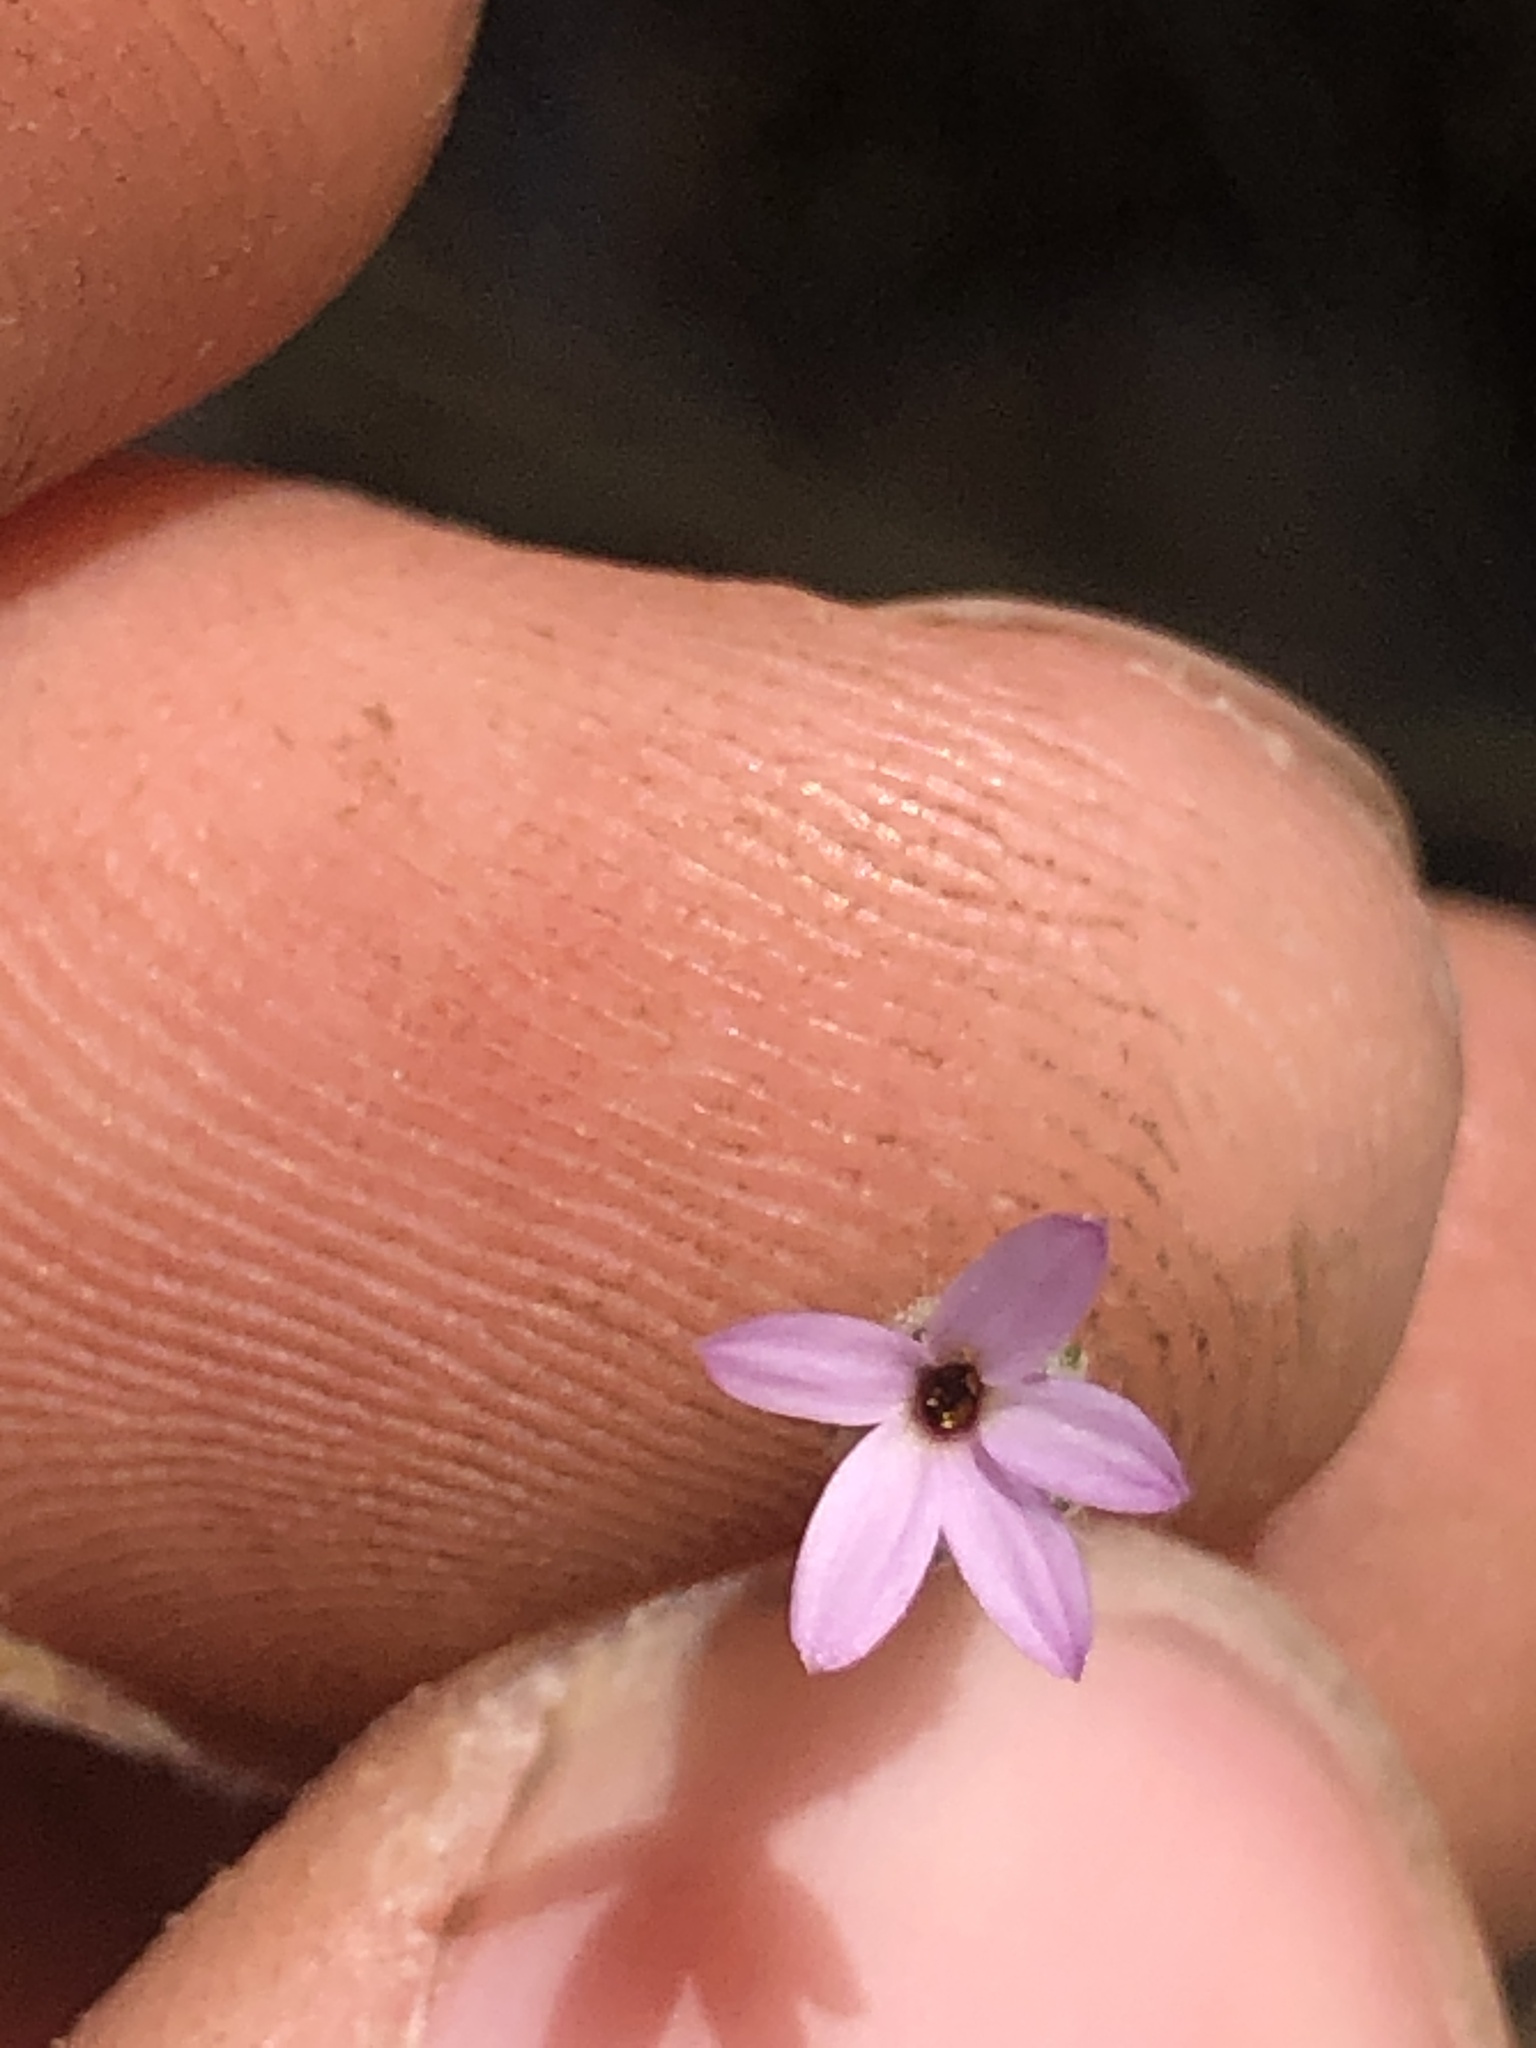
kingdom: Plantae
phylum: Tracheophyta
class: Magnoliopsida
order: Asterales
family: Asteraceae
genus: Lessingia
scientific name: Lessingia hololeuca
